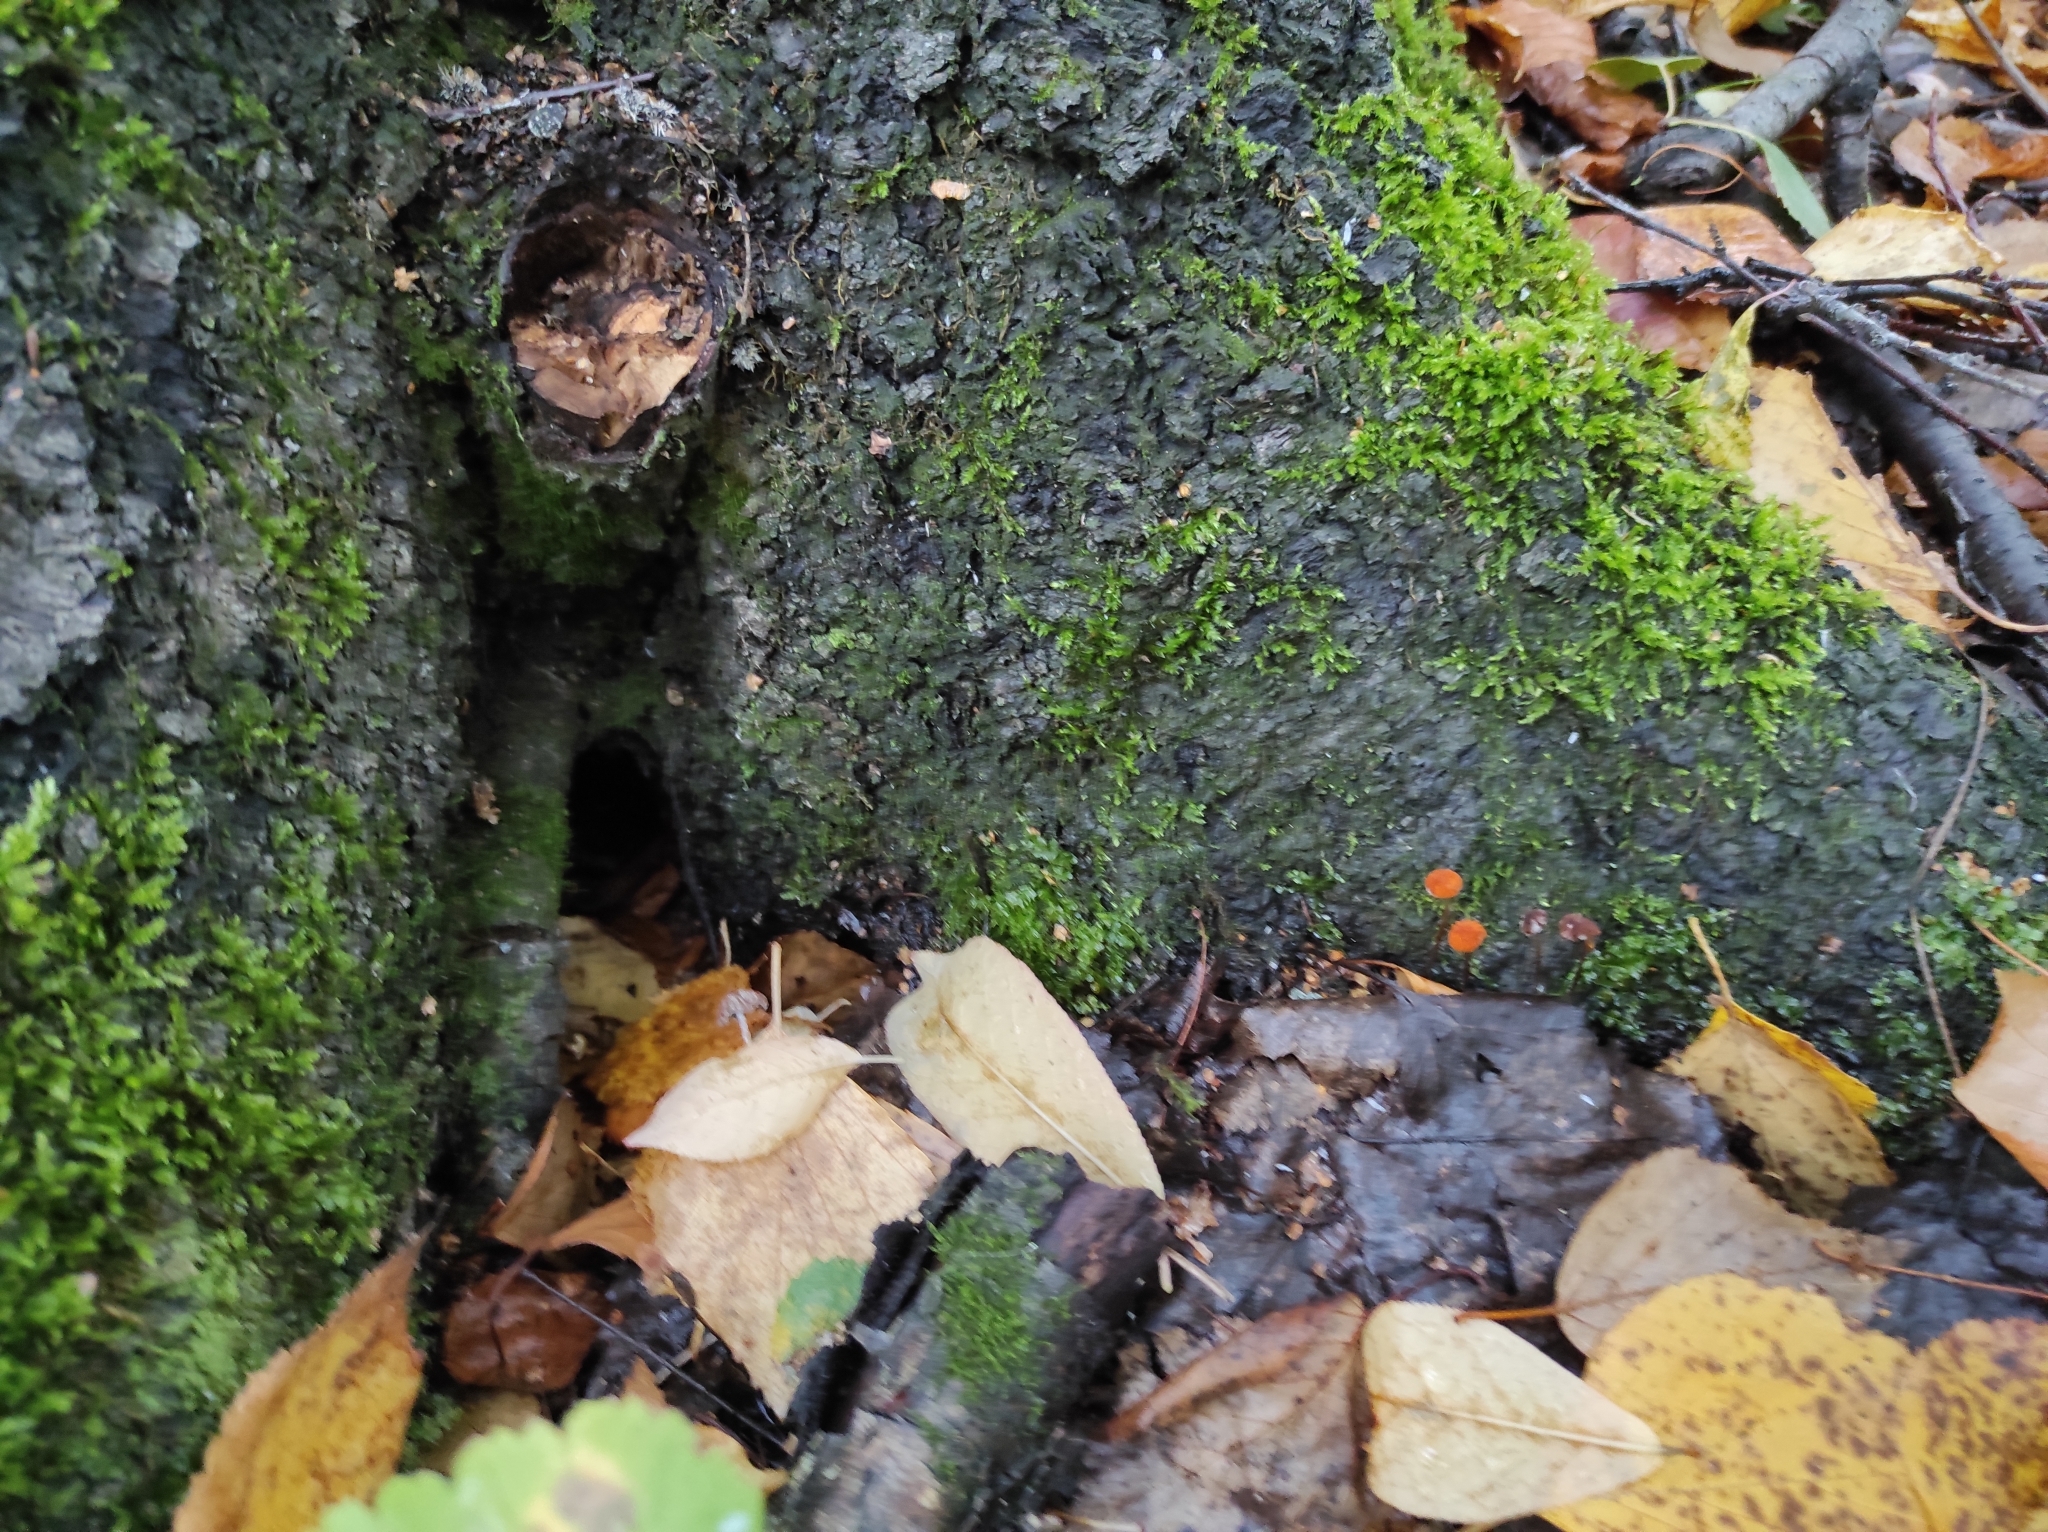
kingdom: Fungi
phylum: Basidiomycota
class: Agaricomycetes
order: Agaricales
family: Marasmiaceae
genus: Marasmius
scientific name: Marasmius siccus
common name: Orange pinwheel
